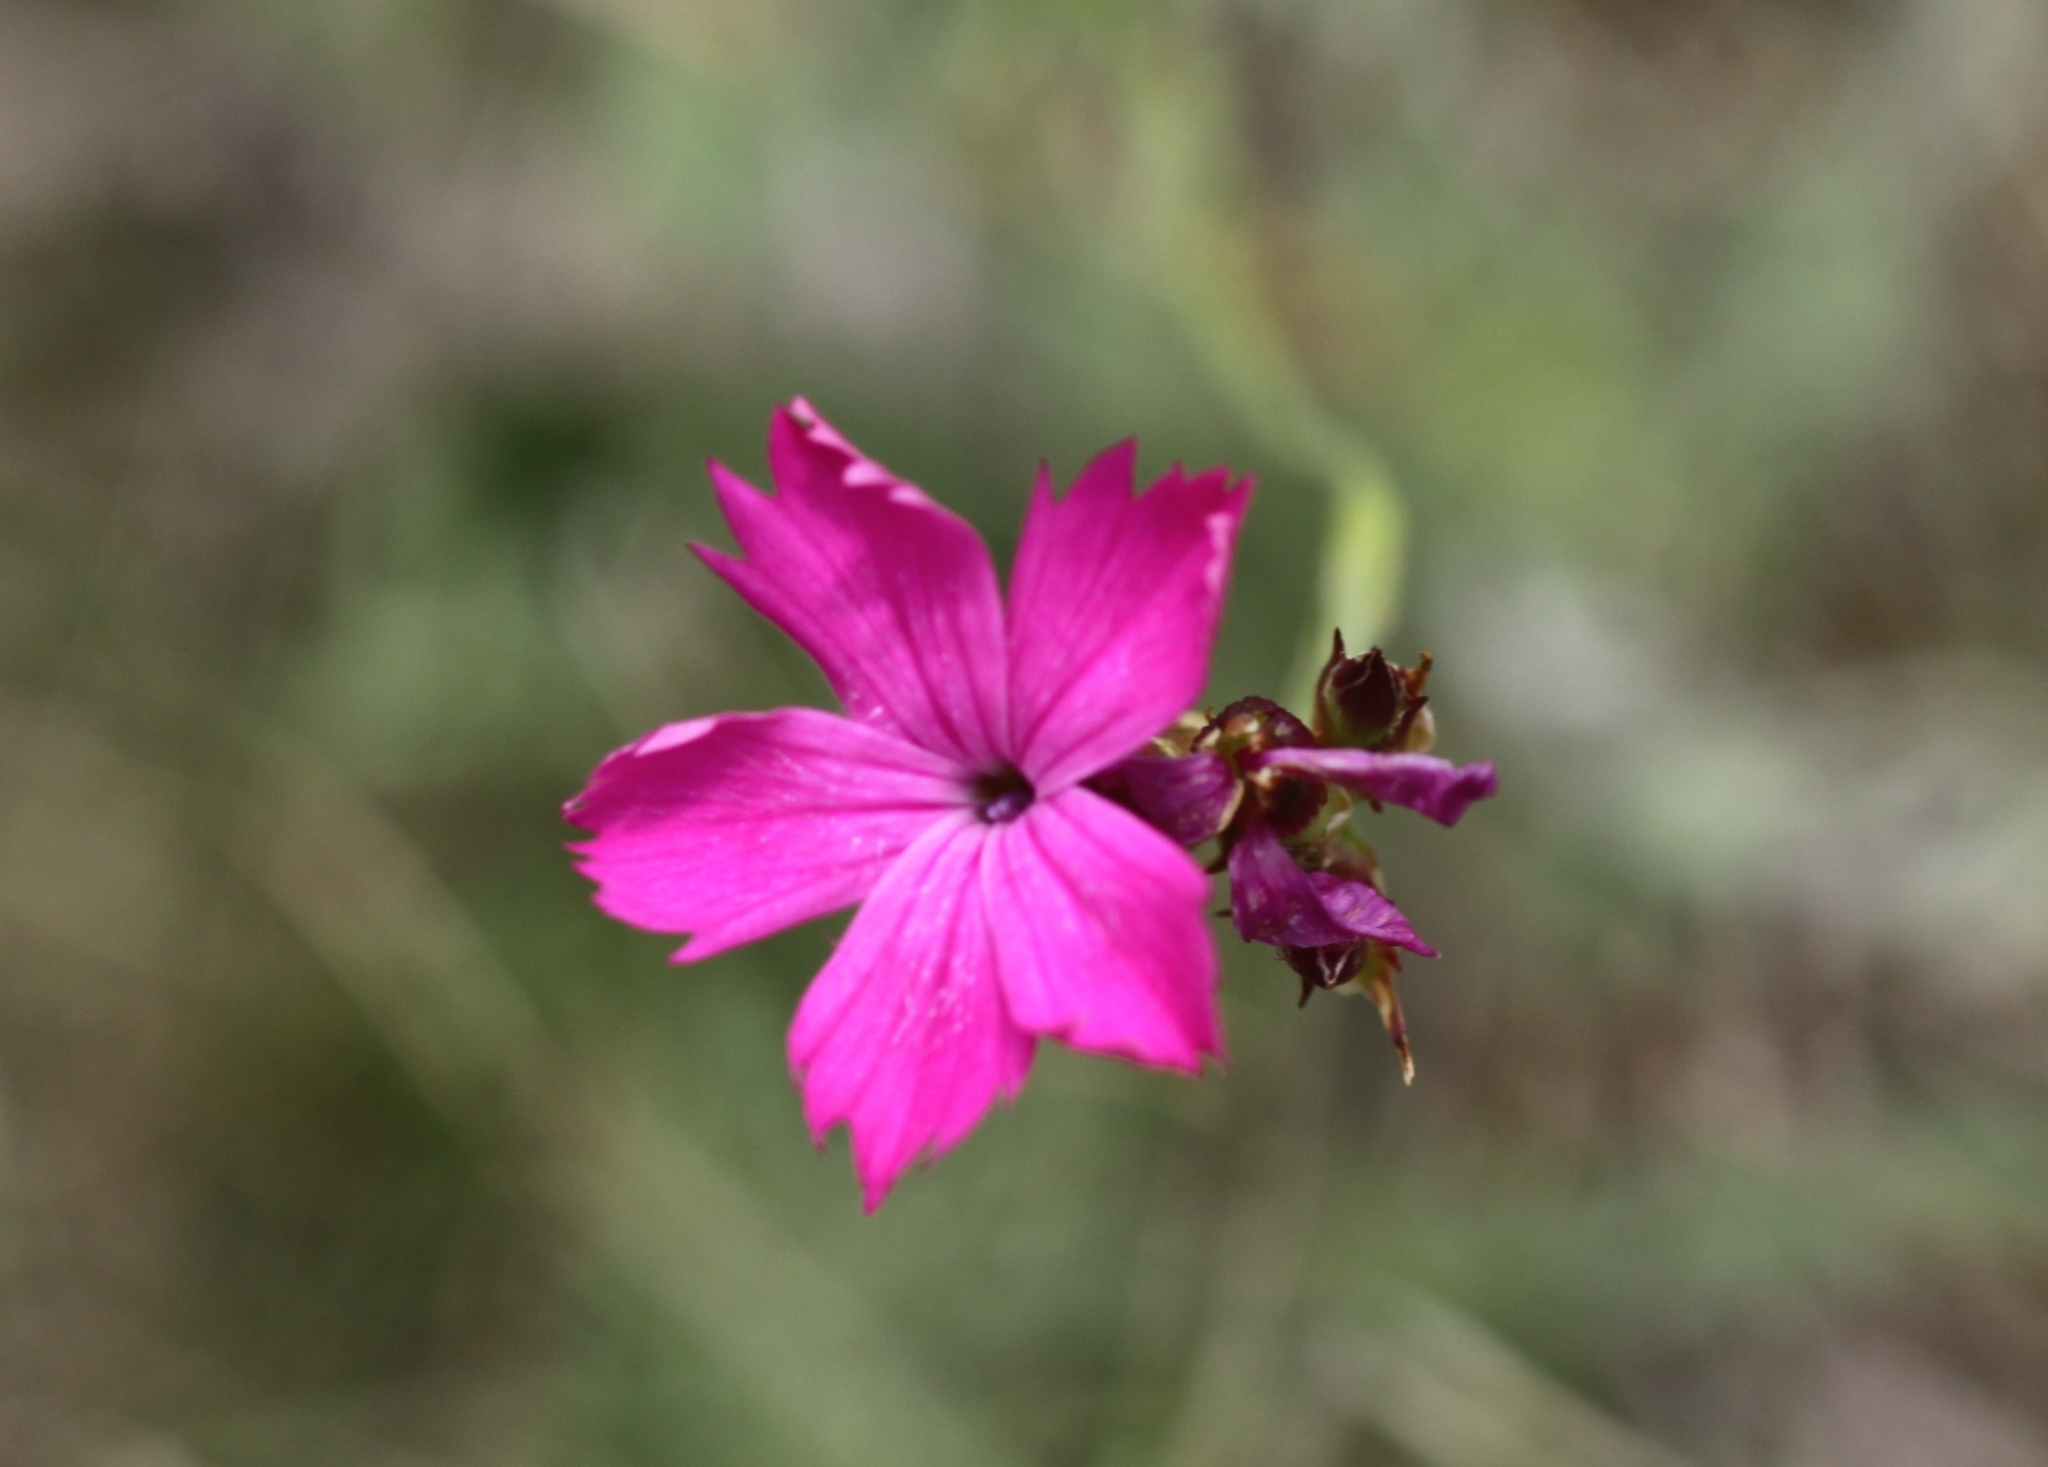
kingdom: Plantae
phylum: Tracheophyta
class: Magnoliopsida
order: Caryophyllales
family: Caryophyllaceae
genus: Dianthus
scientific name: Dianthus carthusianorum
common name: Carthusian pink
